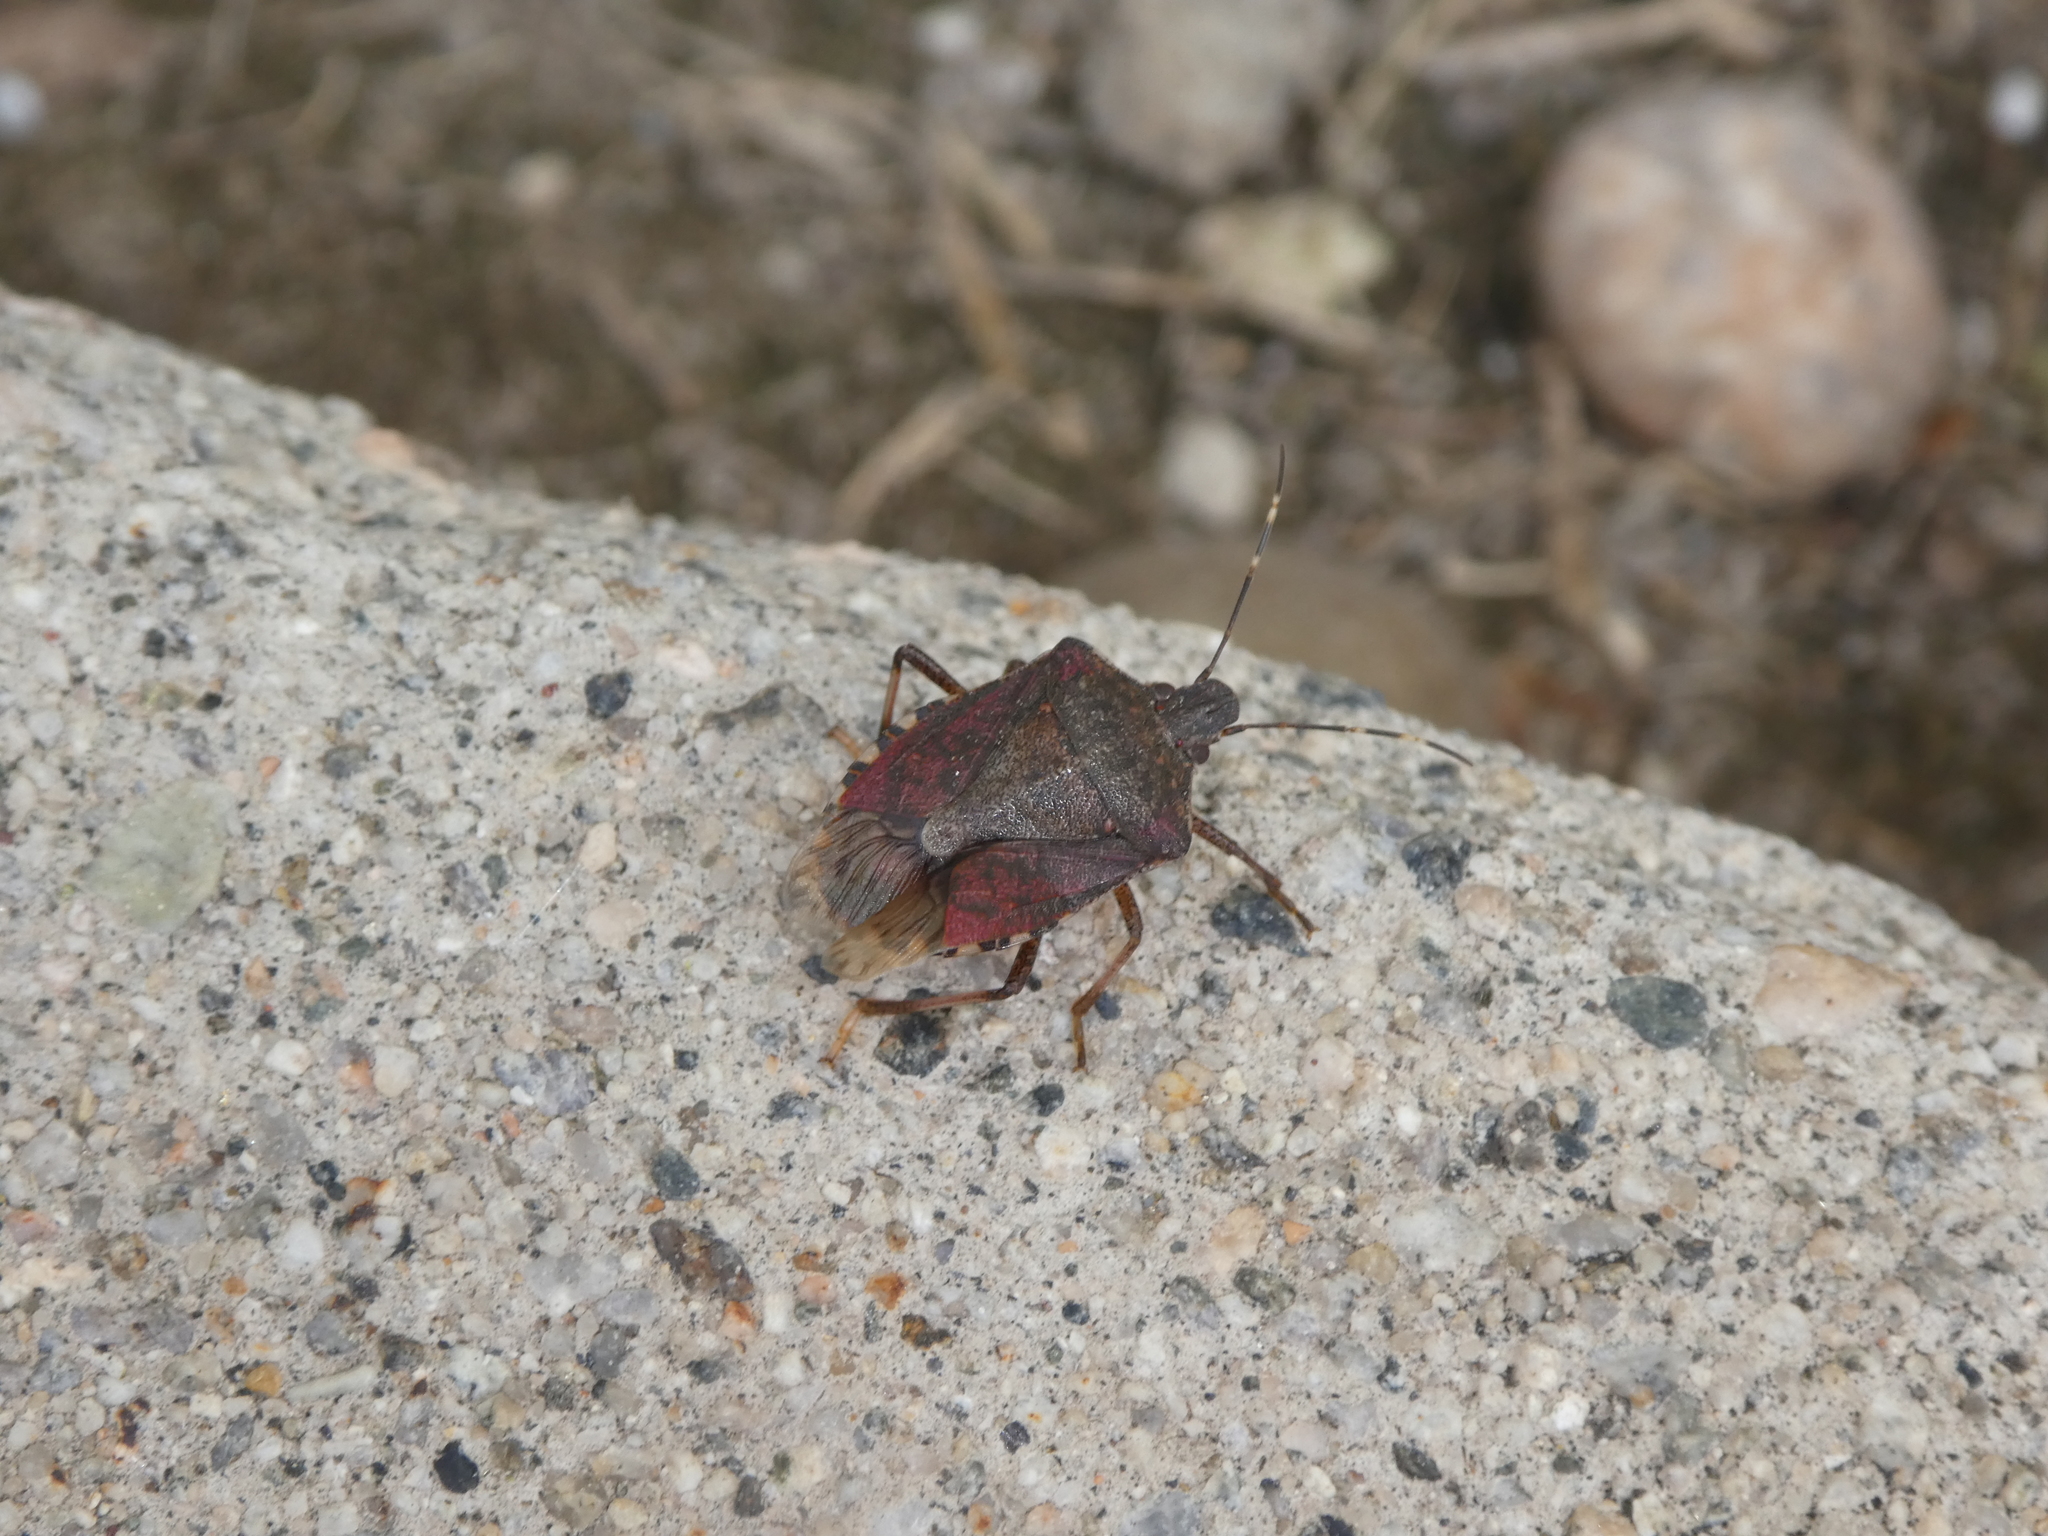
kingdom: Animalia
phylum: Arthropoda
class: Insecta
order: Hemiptera
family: Pentatomidae
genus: Halyomorpha
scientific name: Halyomorpha halys
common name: Brown marmorated stink bug
